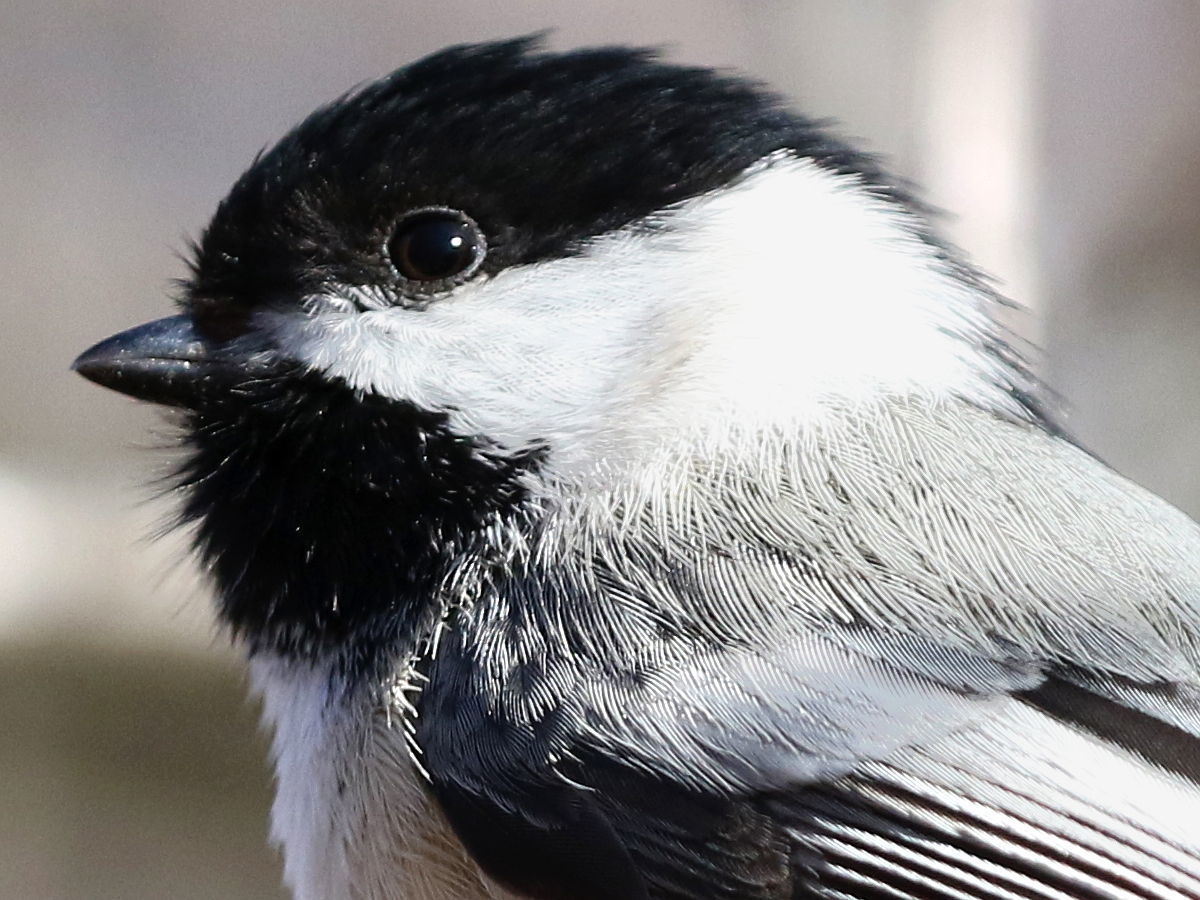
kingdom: Animalia
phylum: Chordata
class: Aves
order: Passeriformes
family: Paridae
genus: Poecile
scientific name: Poecile atricapillus
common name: Black-capped chickadee
